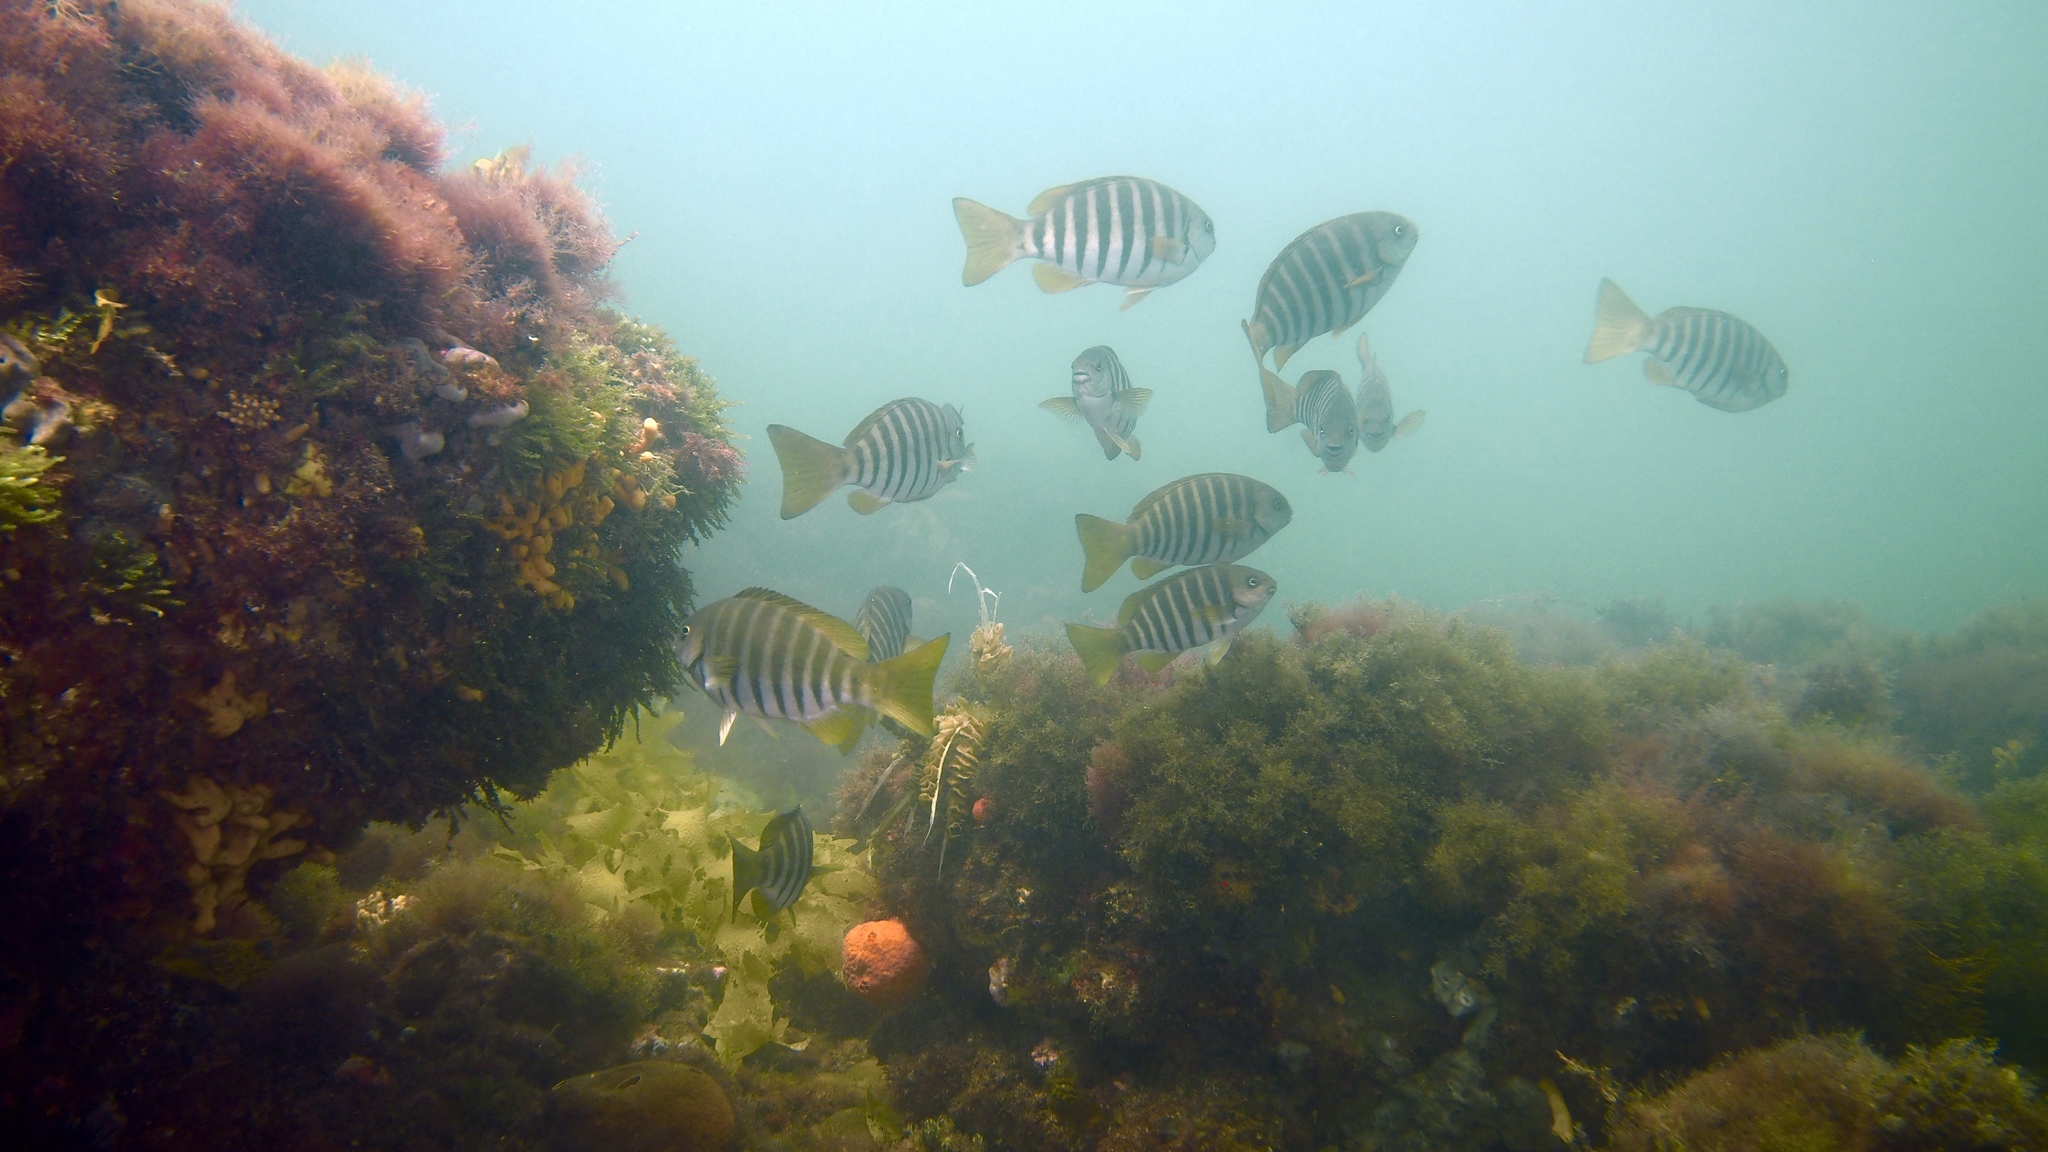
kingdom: Animalia
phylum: Chordata
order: Perciformes
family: Kyphosidae
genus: Girella
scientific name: Girella zebra
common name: Stripey bream
